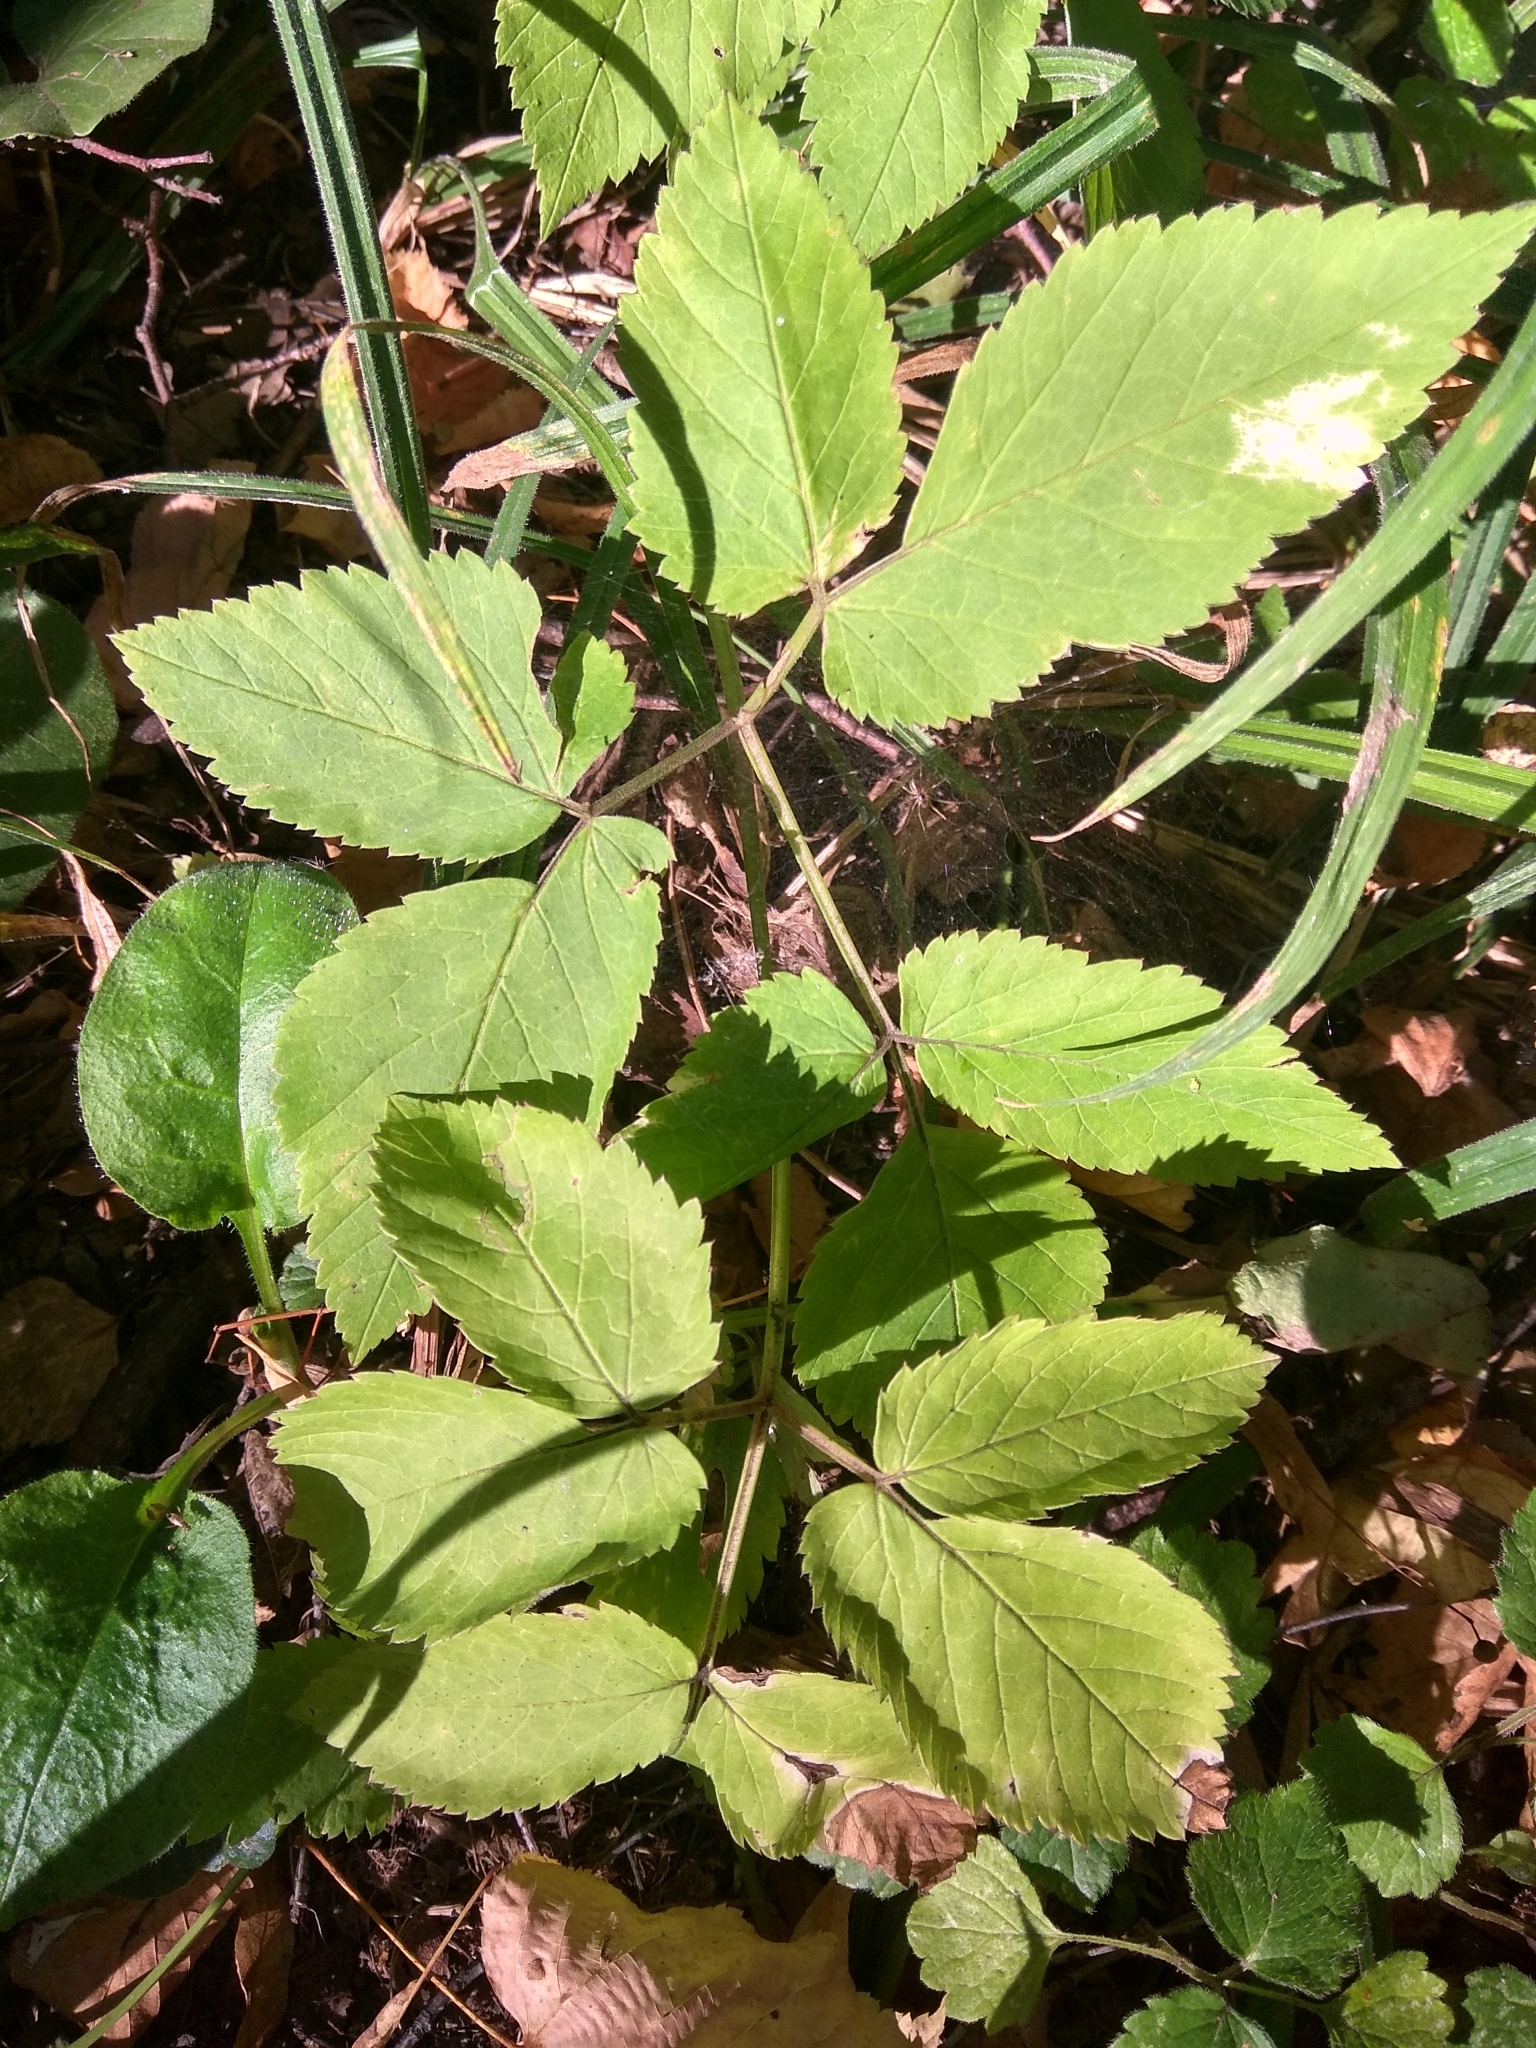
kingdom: Plantae
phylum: Tracheophyta
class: Magnoliopsida
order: Apiales
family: Apiaceae
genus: Aegopodium
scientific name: Aegopodium podagraria
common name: Ground-elder
